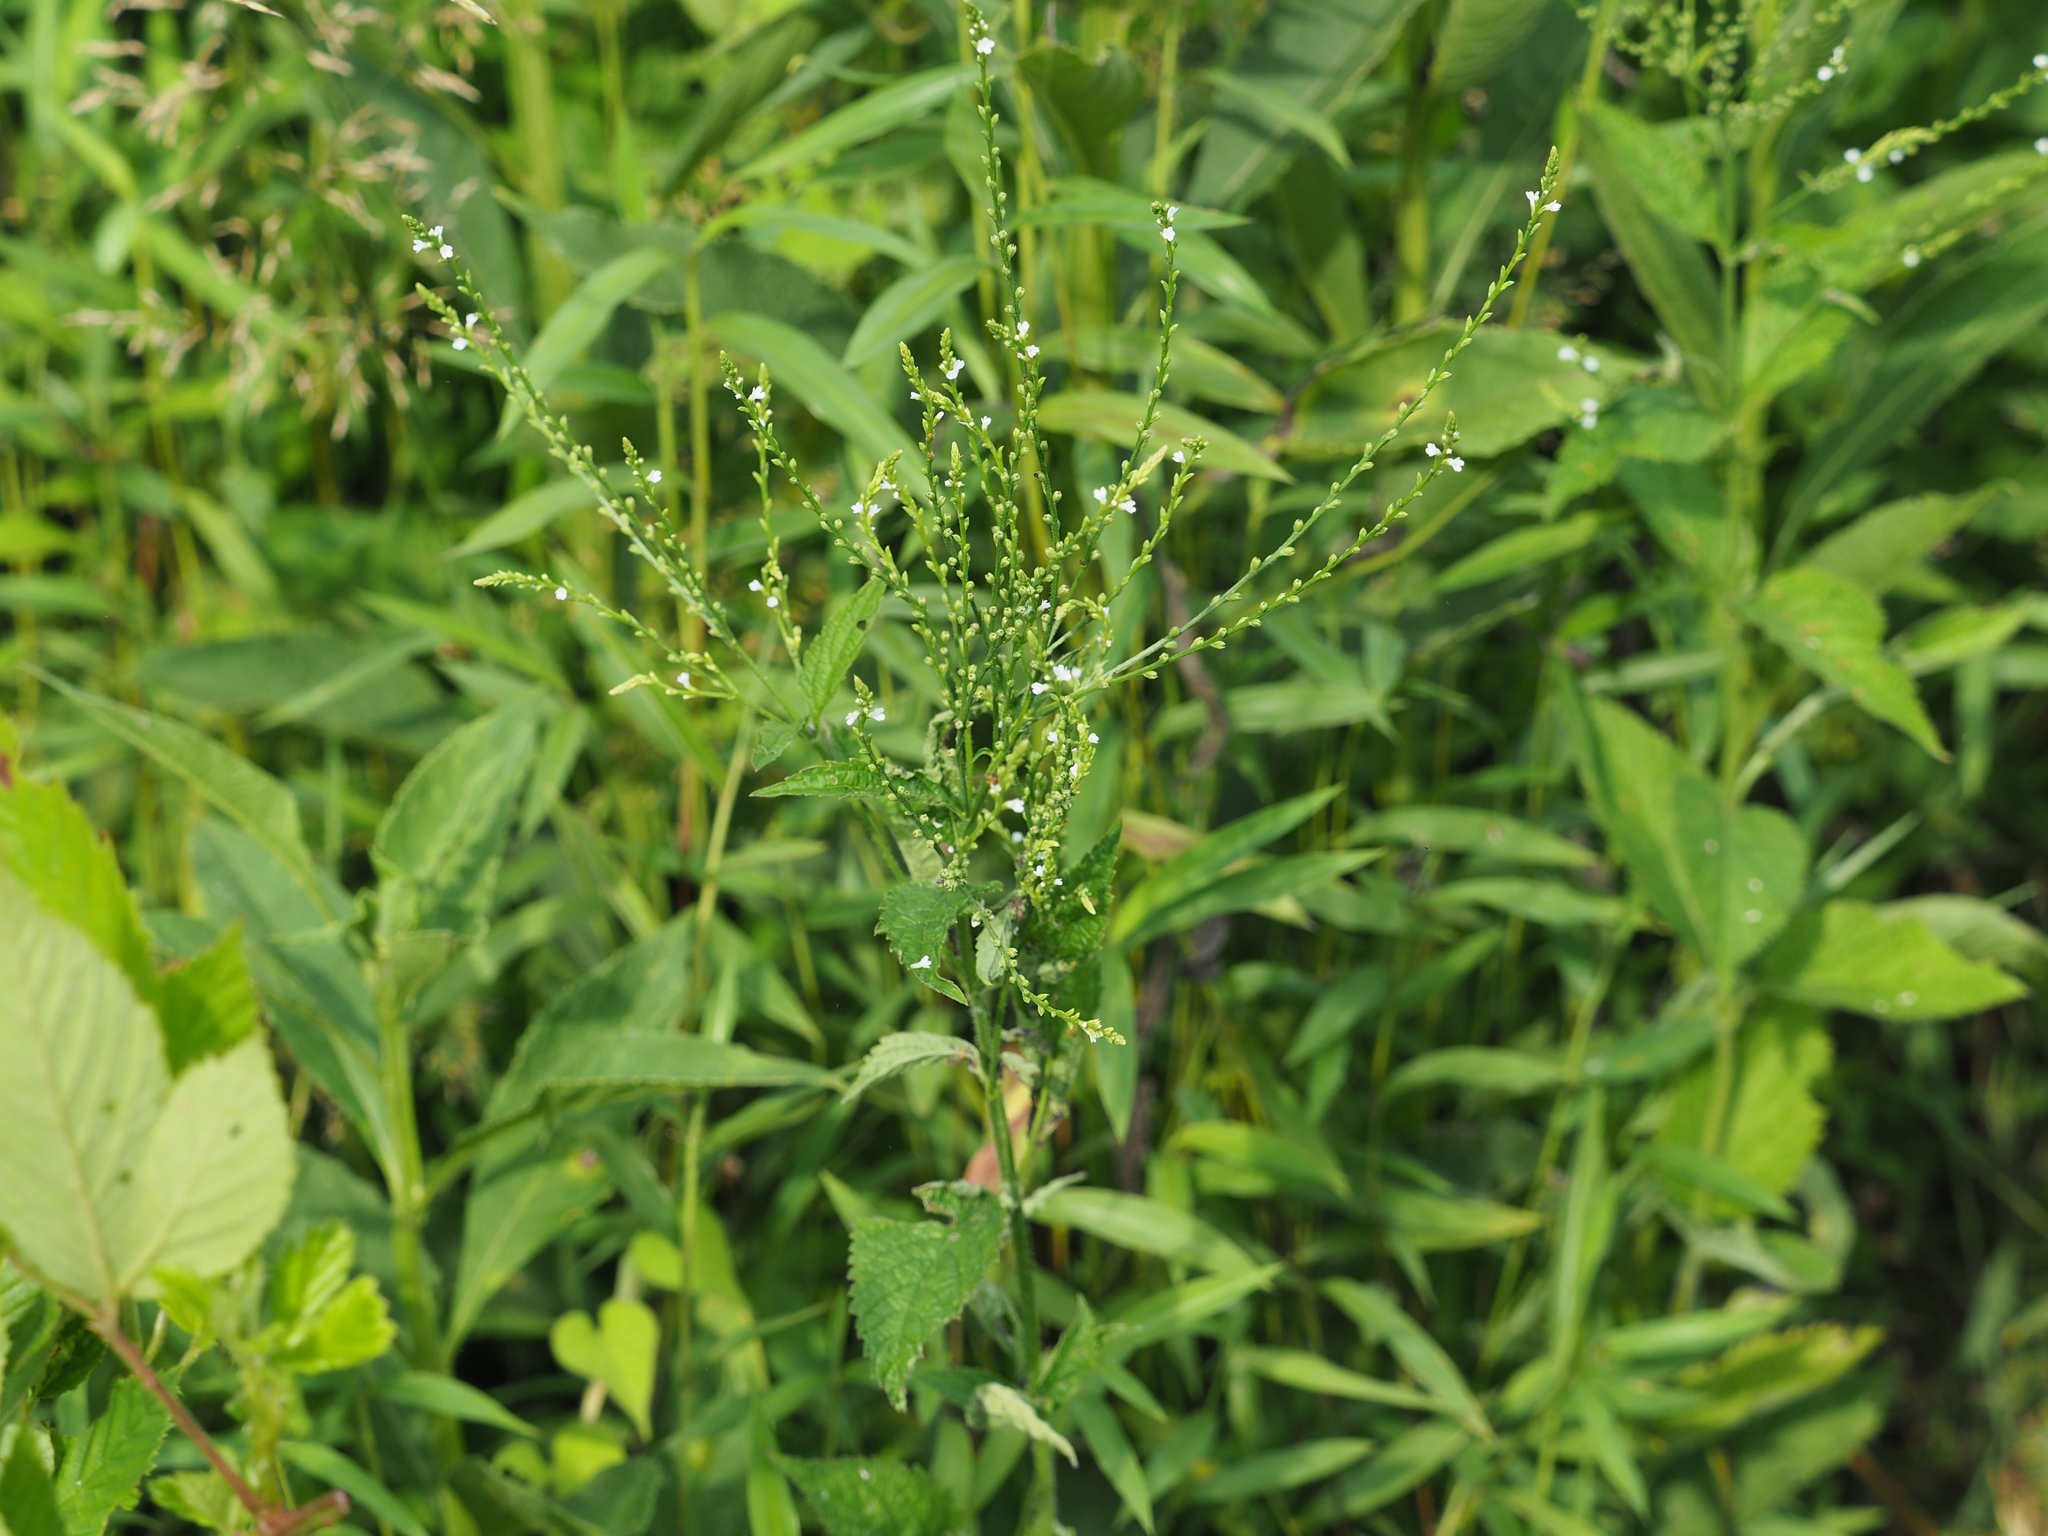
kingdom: Plantae
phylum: Tracheophyta
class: Magnoliopsida
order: Lamiales
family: Verbenaceae
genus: Verbena
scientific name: Verbena urticifolia
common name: Nettle-leaved vervain
